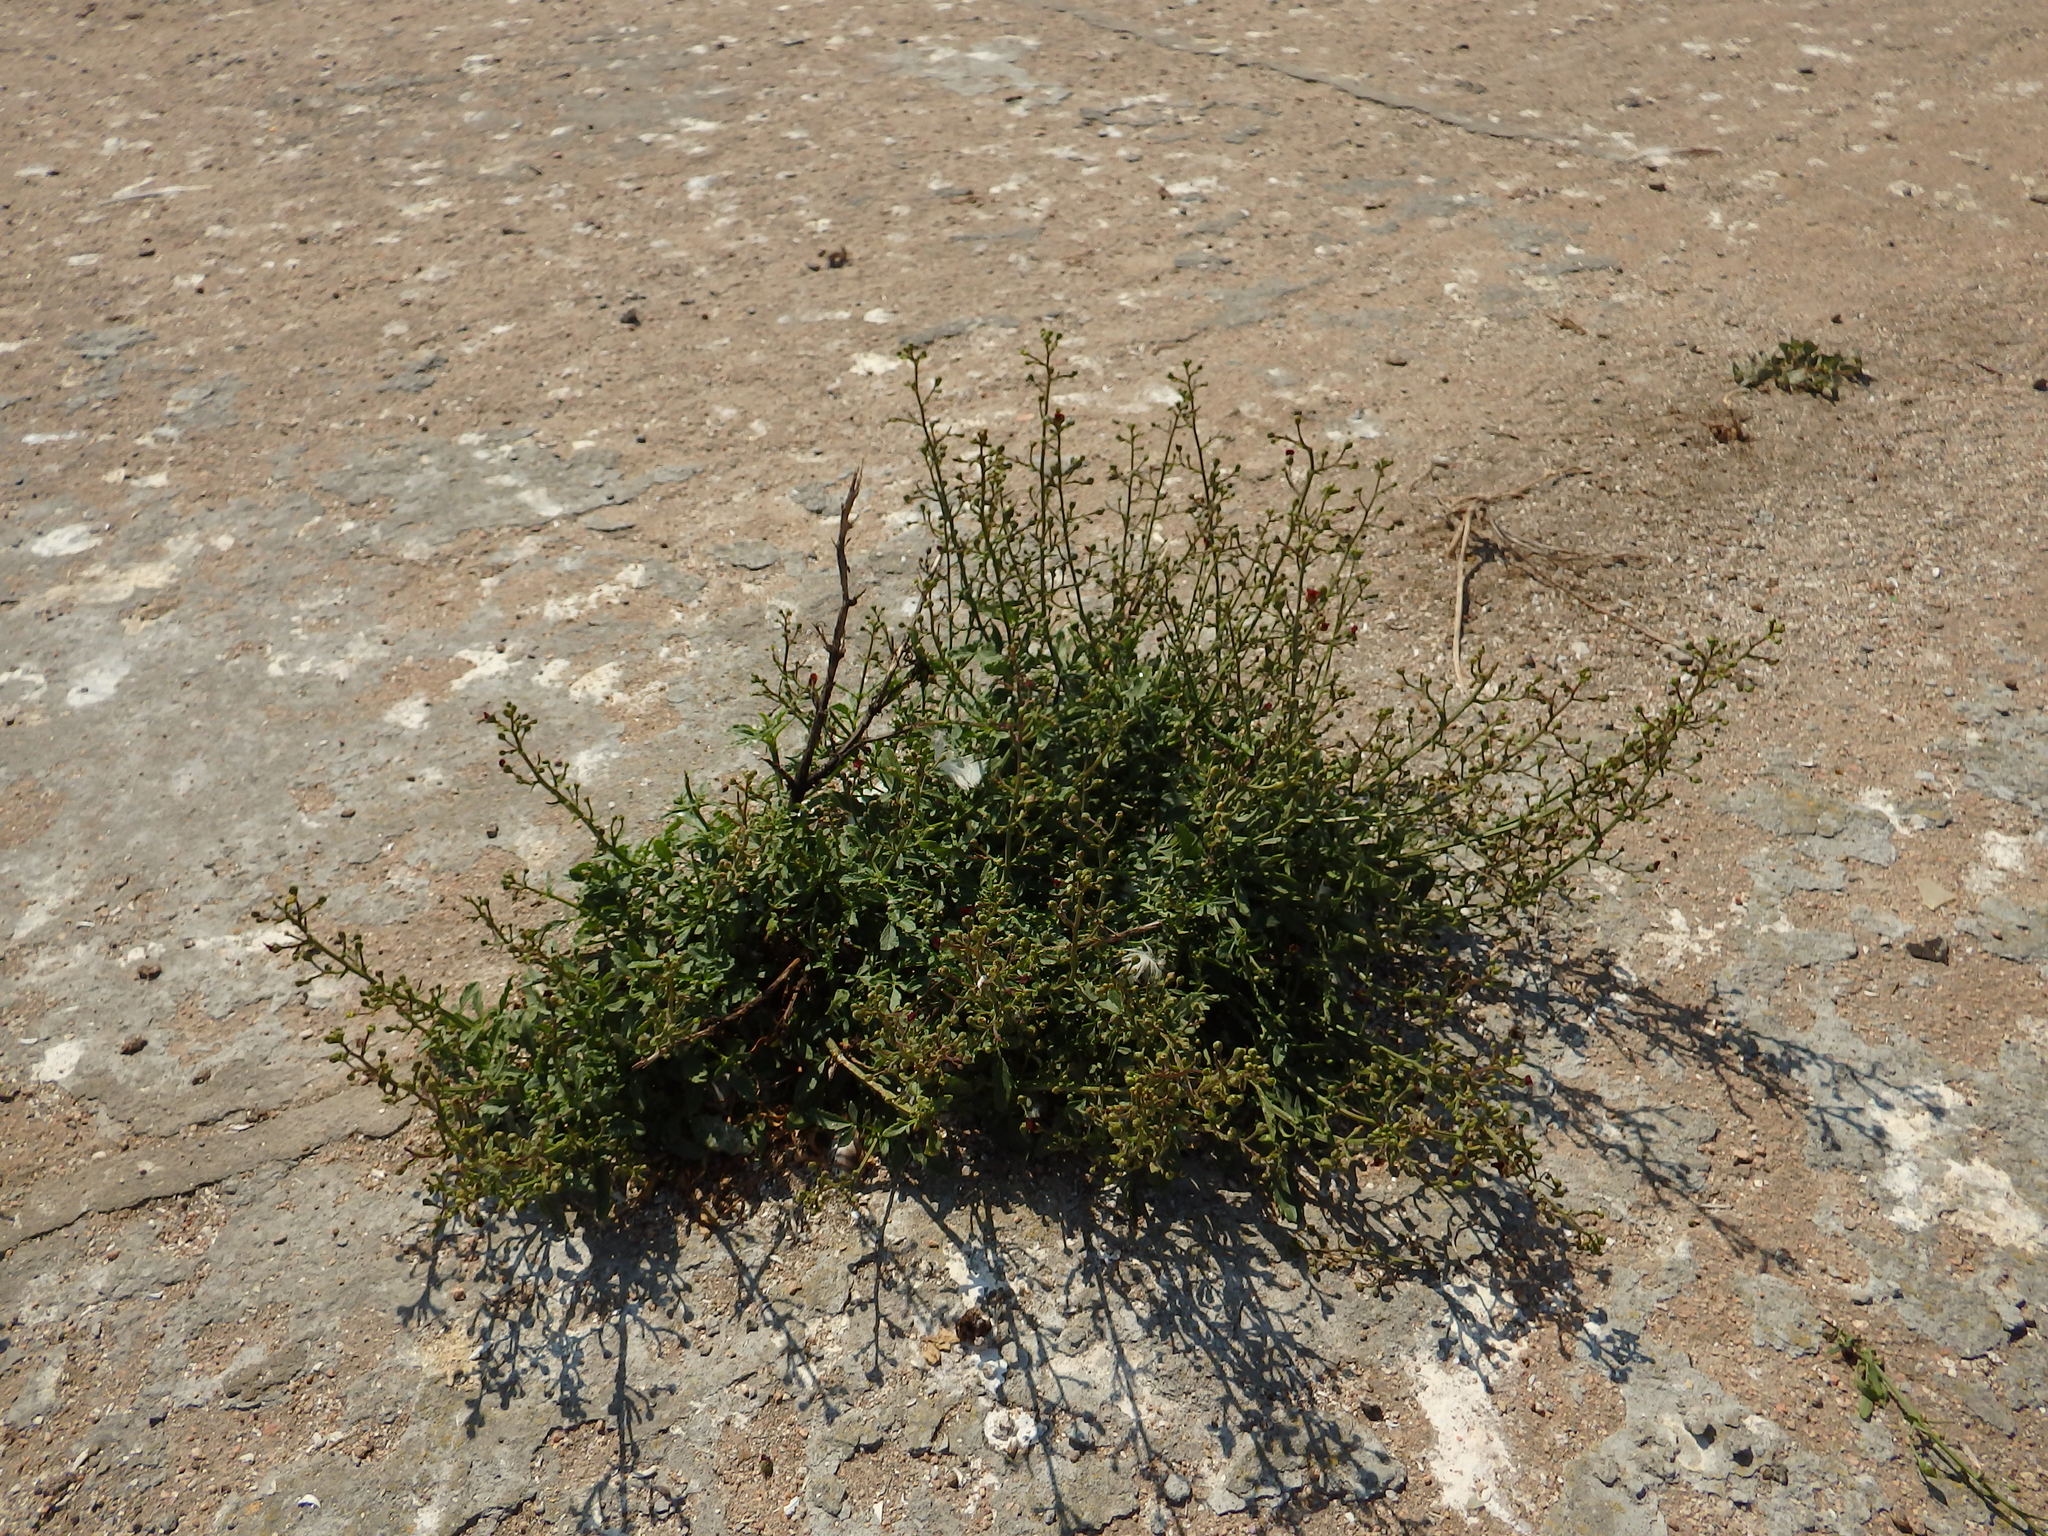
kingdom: Plantae
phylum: Tracheophyta
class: Magnoliopsida
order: Lamiales
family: Scrophulariaceae
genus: Scrophularia
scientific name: Scrophularia sublyrata
